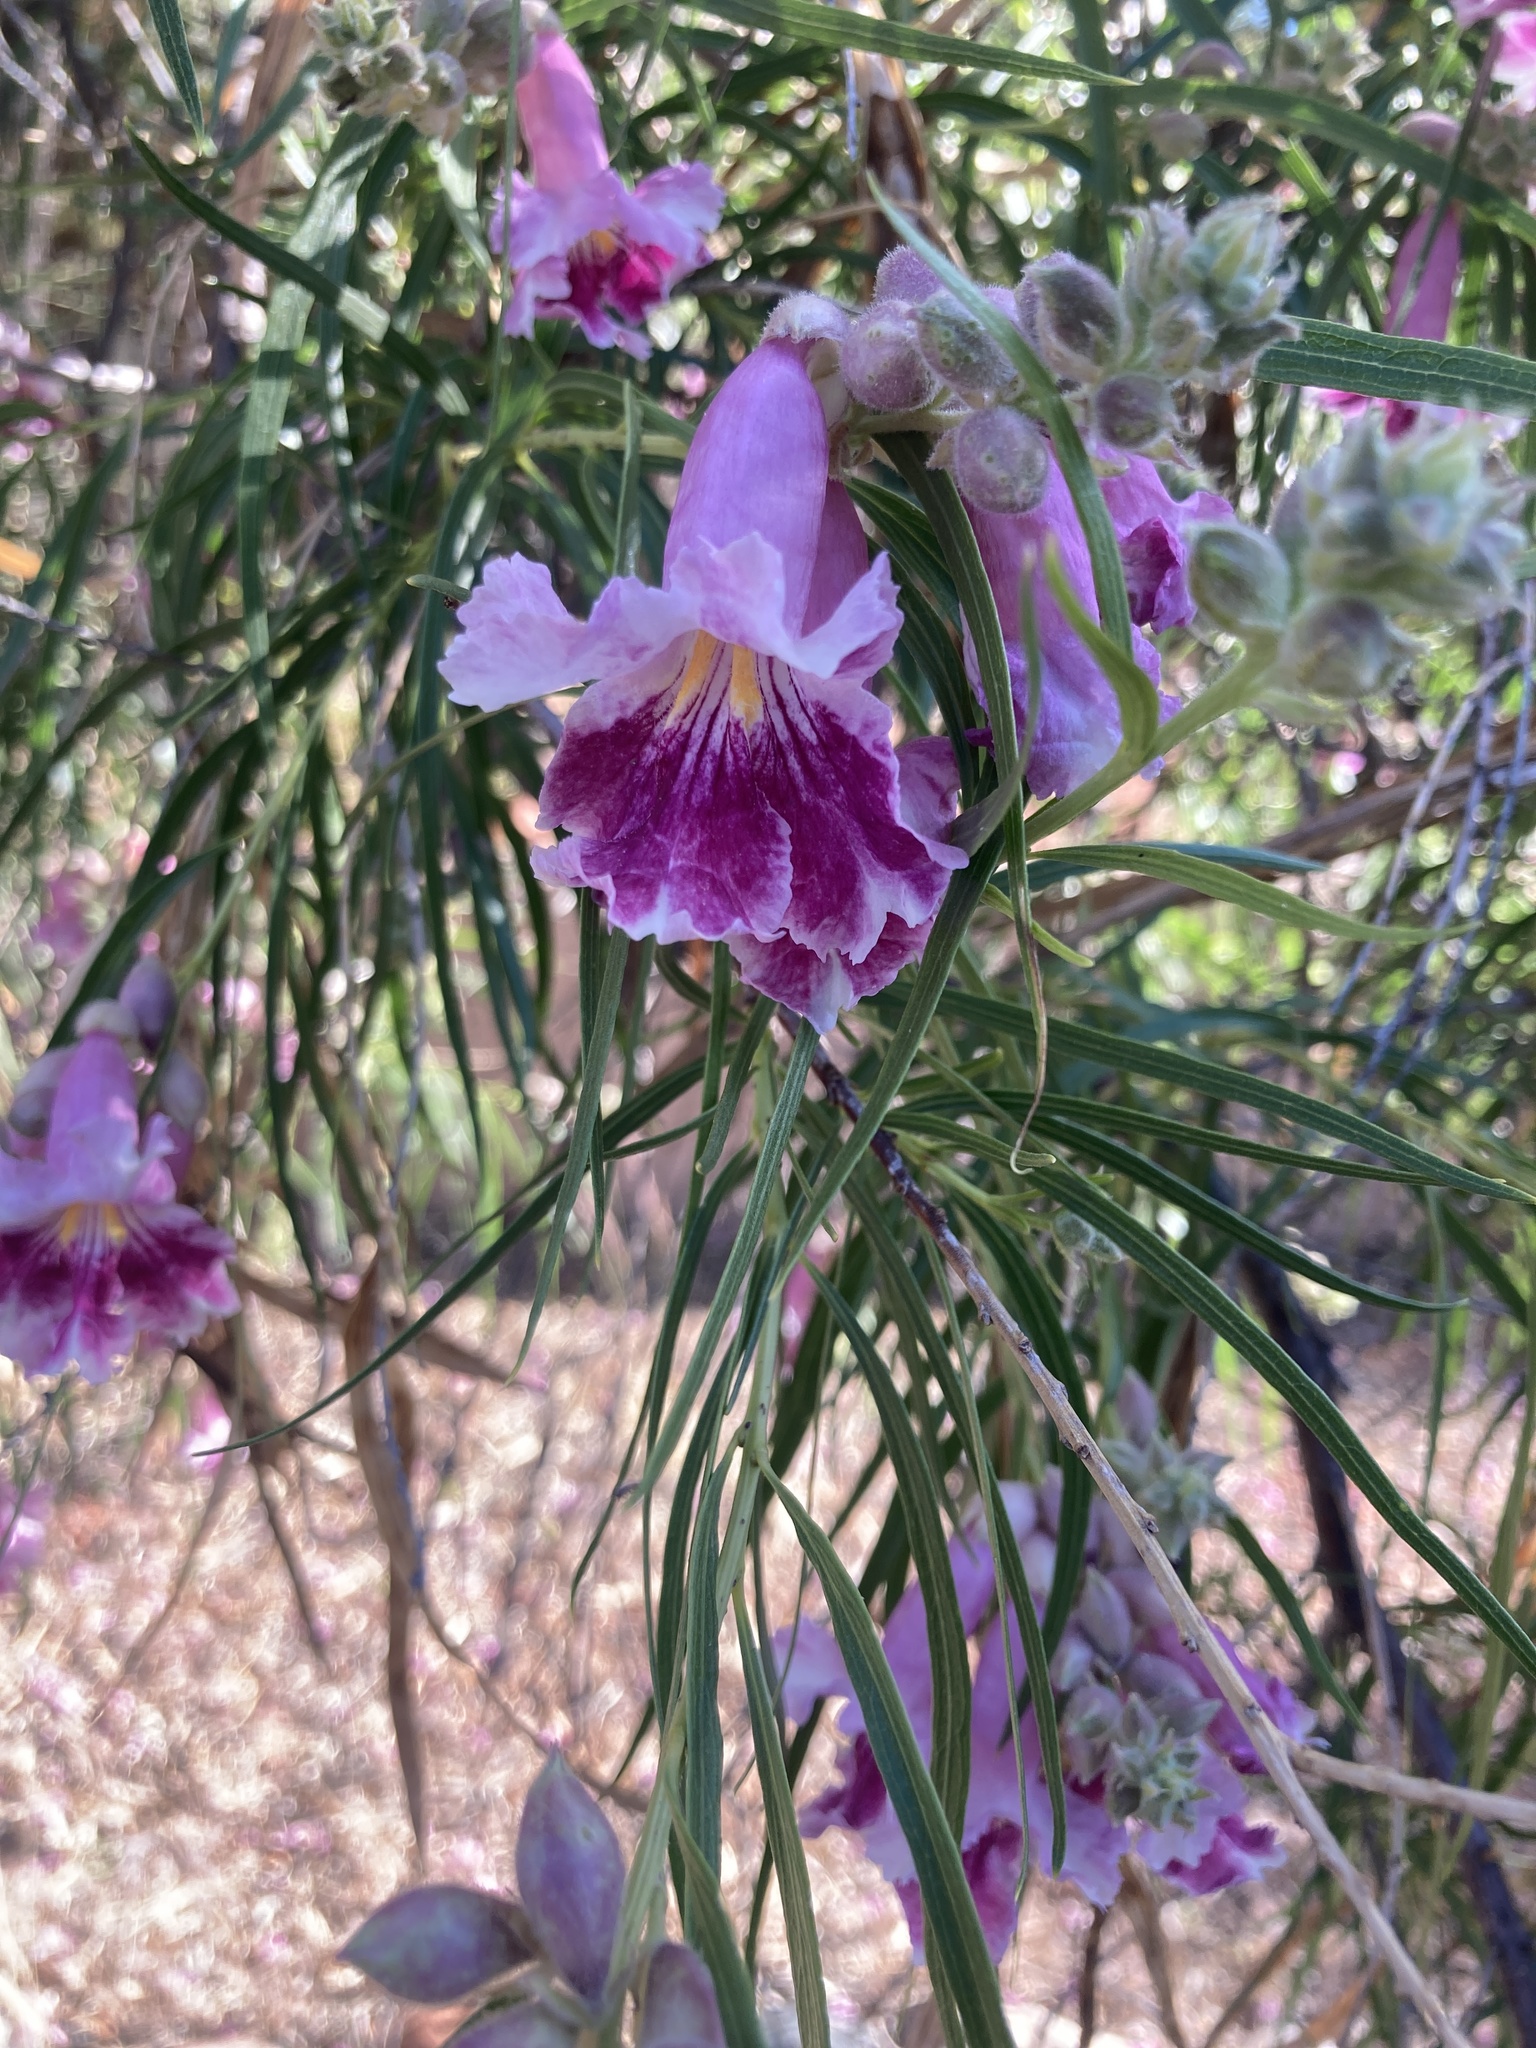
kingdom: Plantae
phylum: Tracheophyta
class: Magnoliopsida
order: Lamiales
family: Bignoniaceae
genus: Chilopsis
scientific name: Chilopsis linearis
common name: Desert-willow
